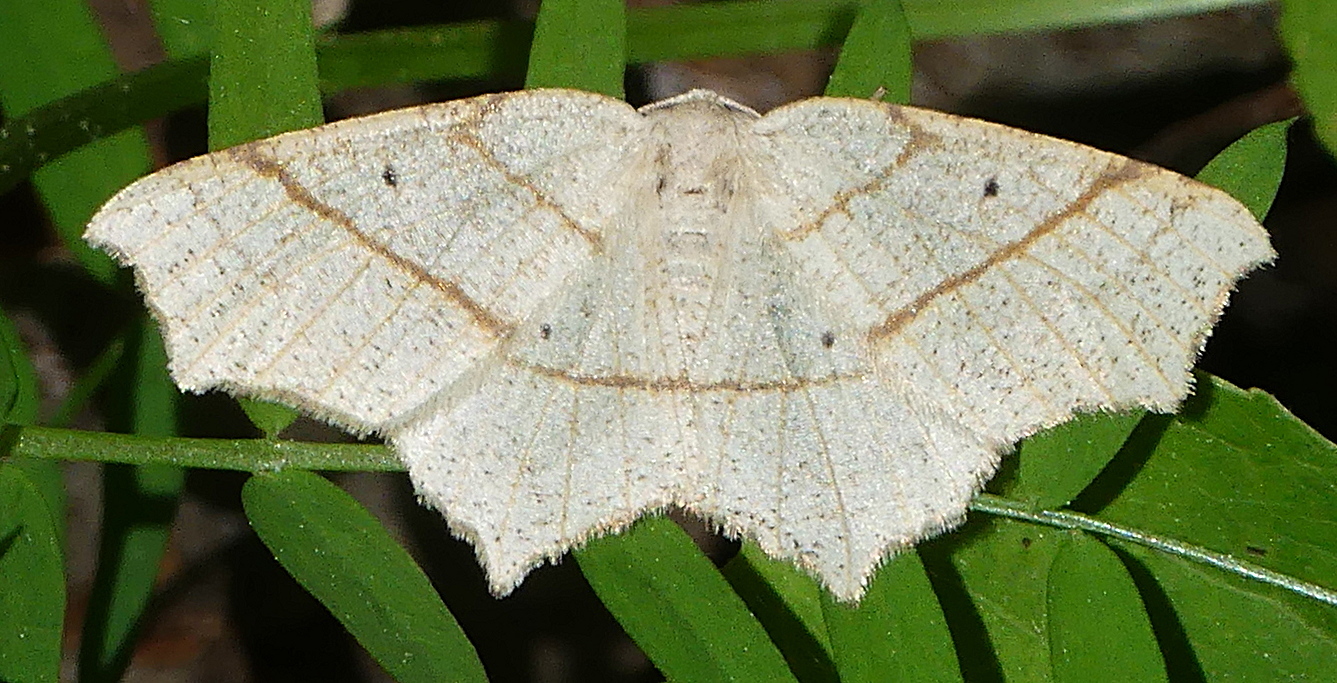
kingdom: Animalia
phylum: Arthropoda
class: Insecta
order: Lepidoptera
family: Geometridae
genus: Besma
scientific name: Besma quercivoraria
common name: Oak besma
